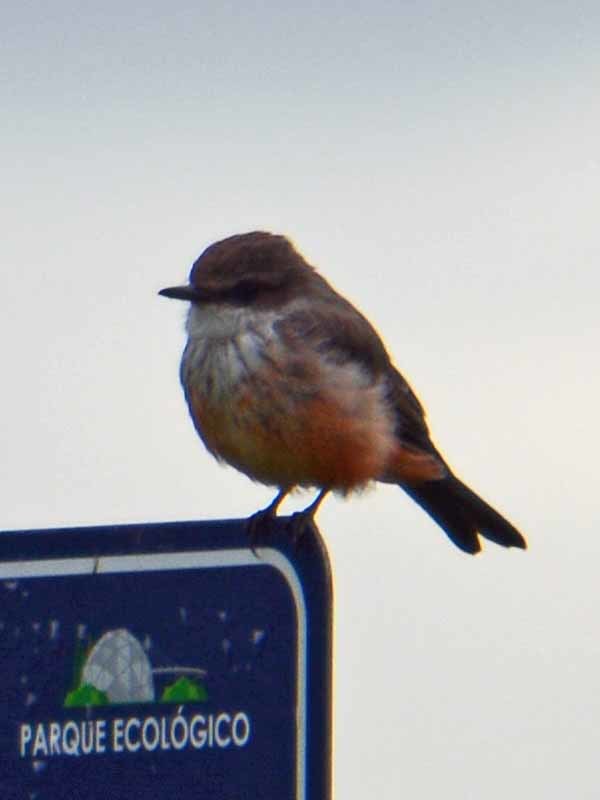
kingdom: Animalia
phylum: Chordata
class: Aves
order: Passeriformes
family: Tyrannidae
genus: Pyrocephalus
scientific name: Pyrocephalus rubinus
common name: Vermilion flycatcher
